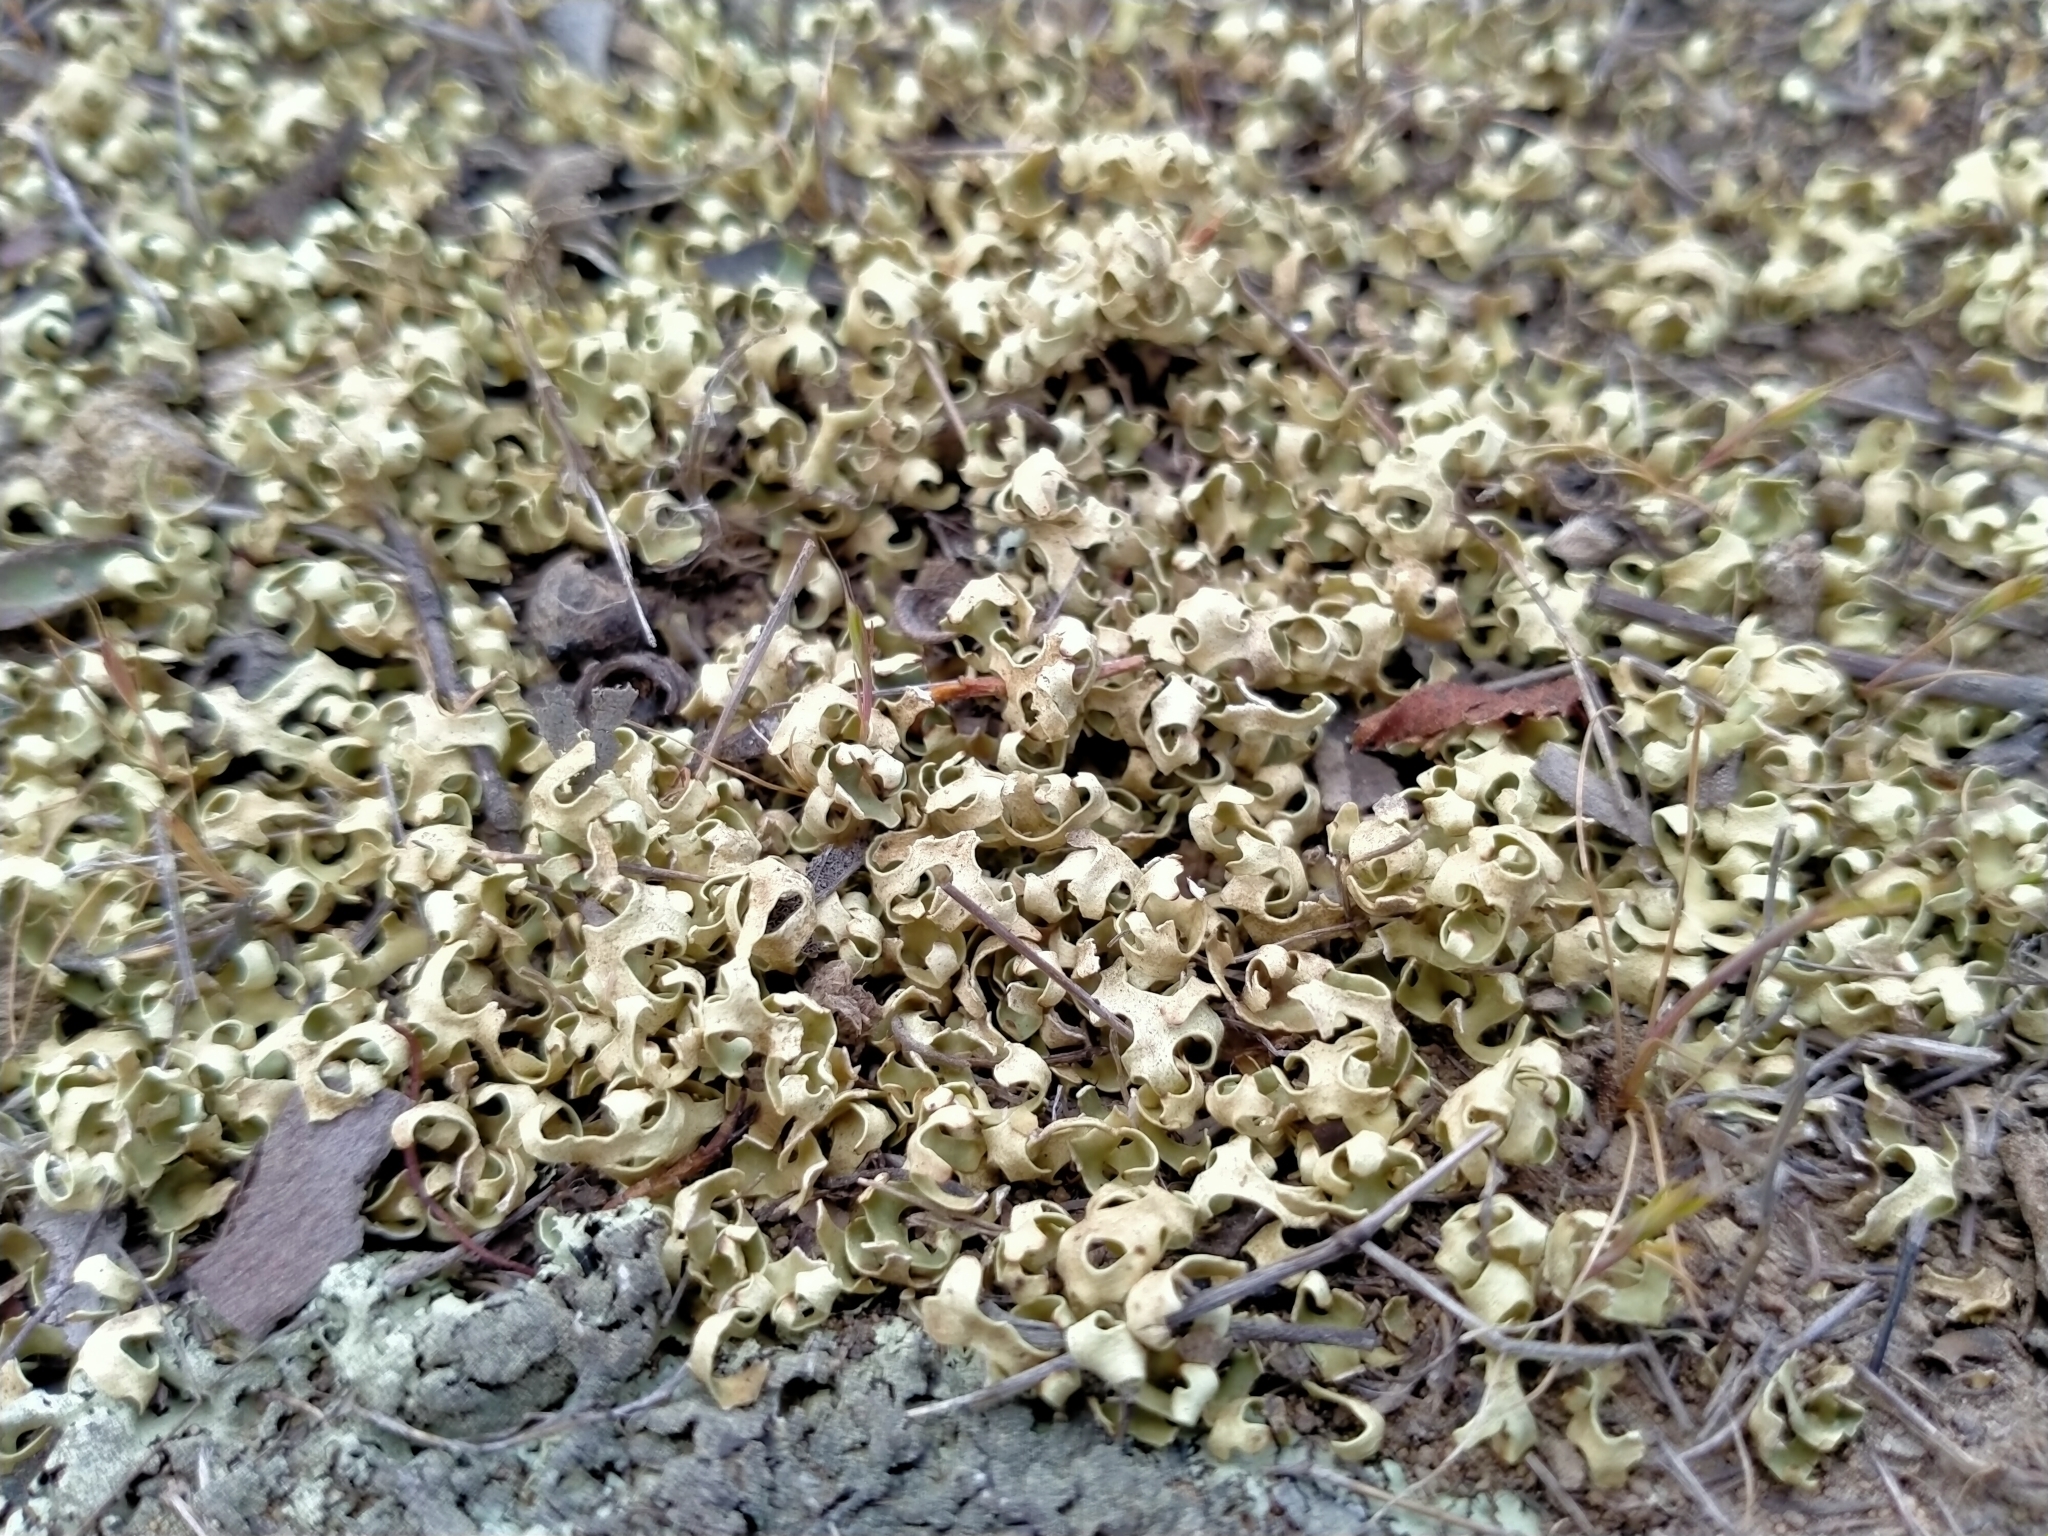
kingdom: Fungi
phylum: Ascomycota
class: Lecanoromycetes
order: Lecanorales
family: Parmeliaceae
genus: Xanthoparmelia
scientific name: Xanthoparmelia semiviridis
